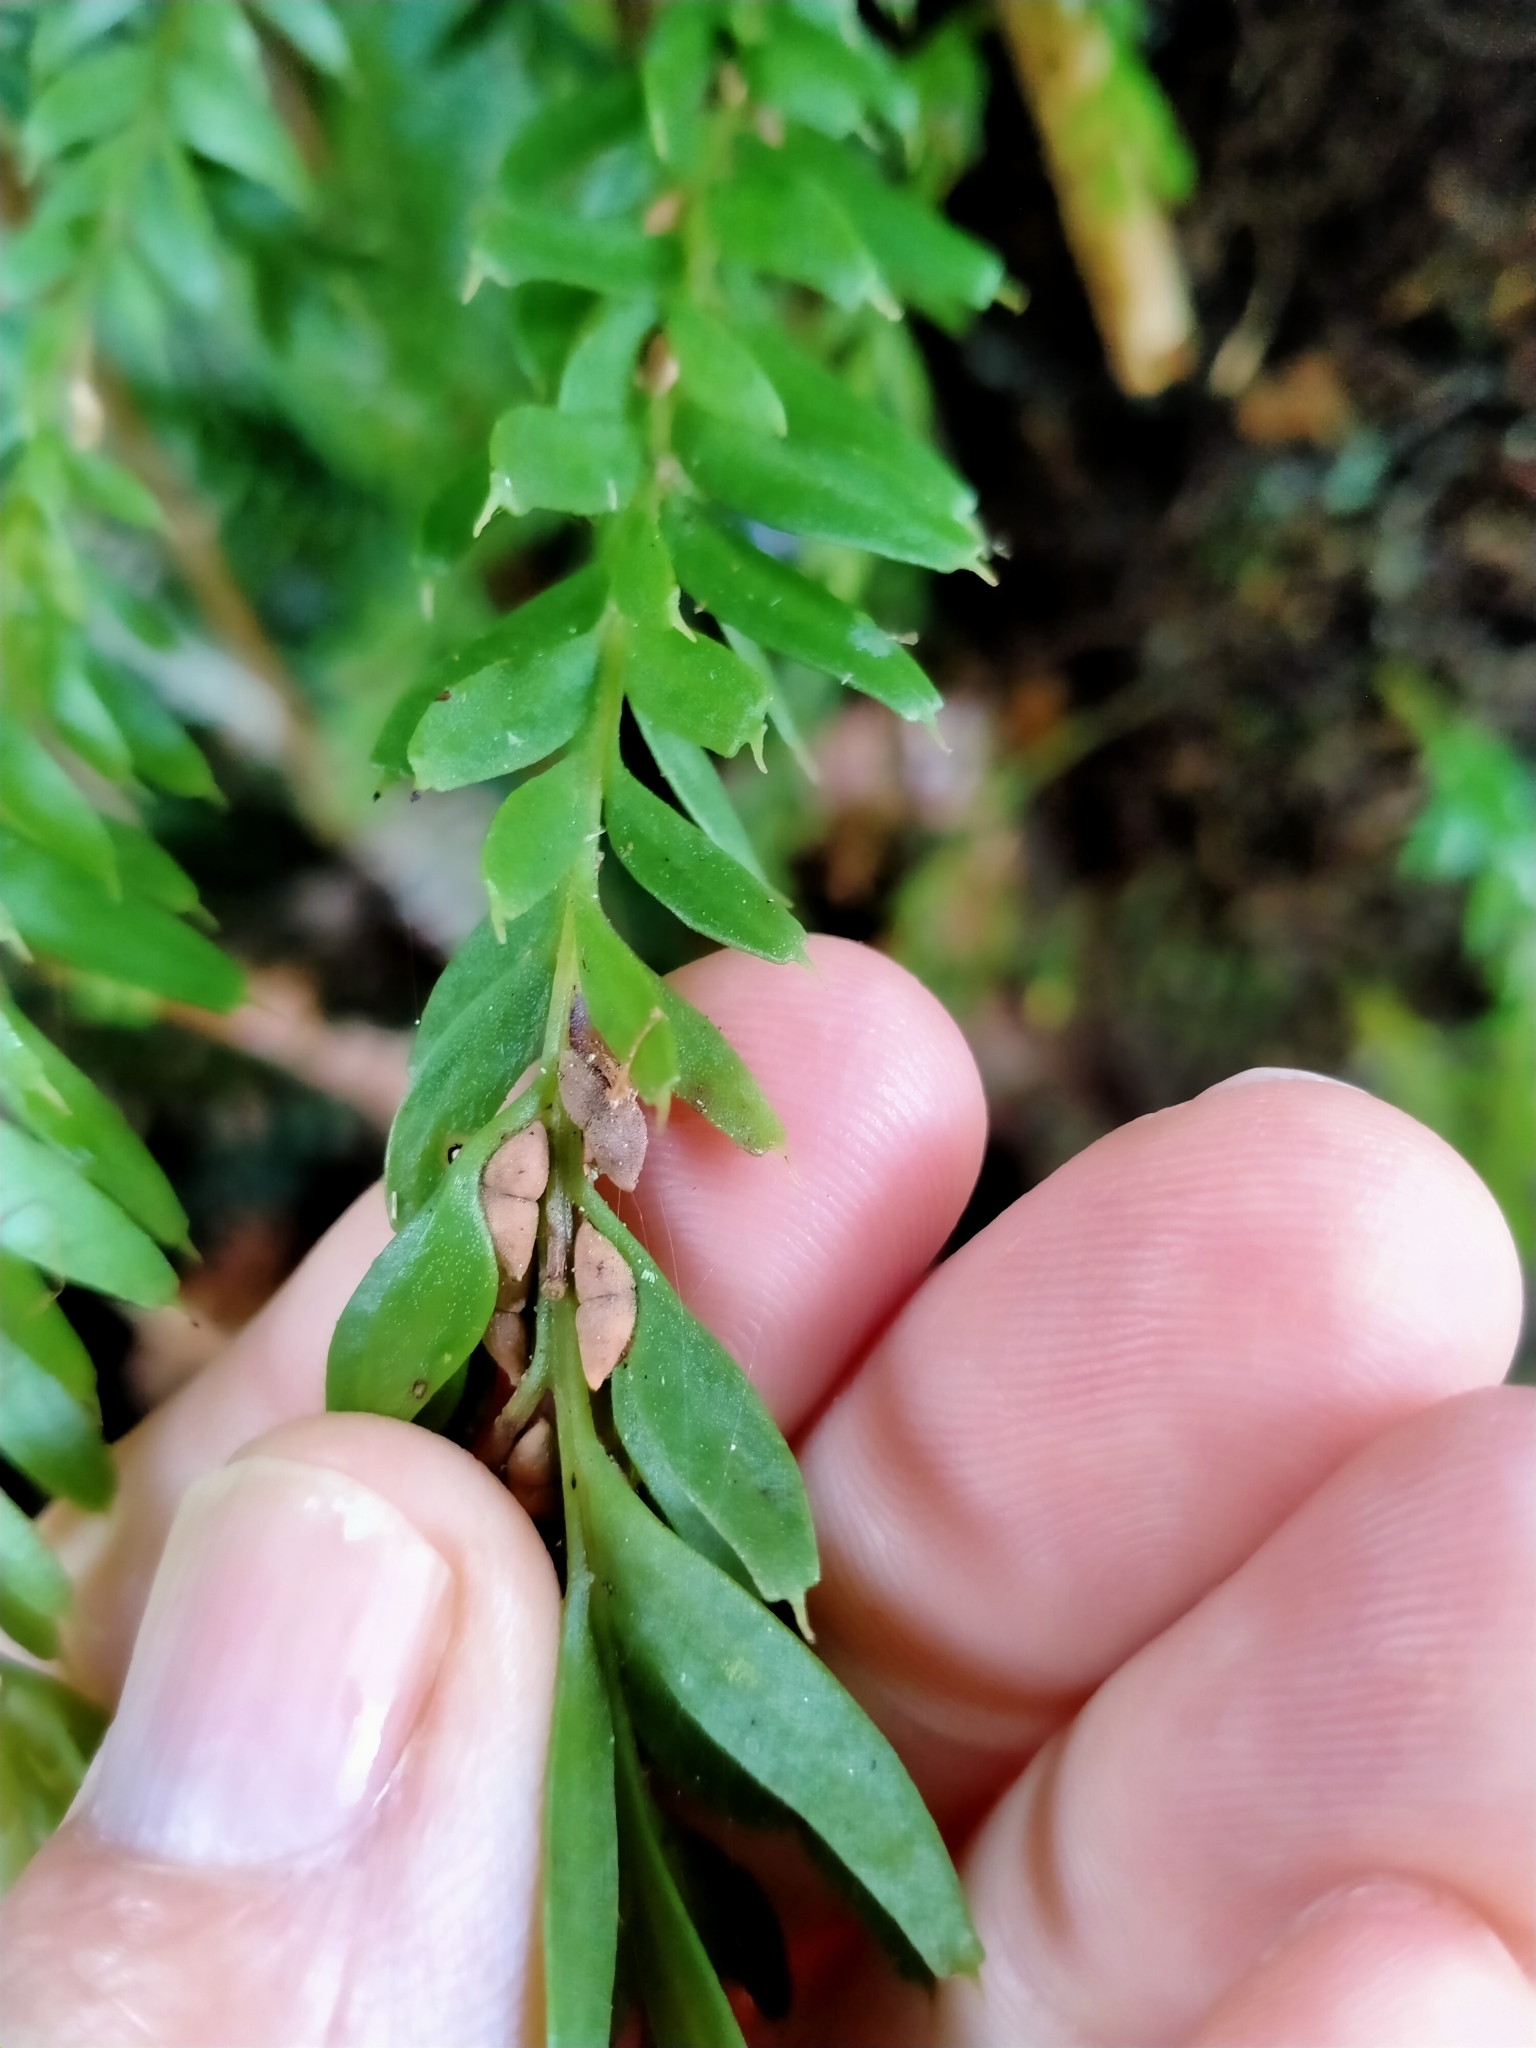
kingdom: Plantae
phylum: Tracheophyta
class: Polypodiopsida
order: Psilotales
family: Psilotaceae
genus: Tmesipteris
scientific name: Tmesipteris tannensis
